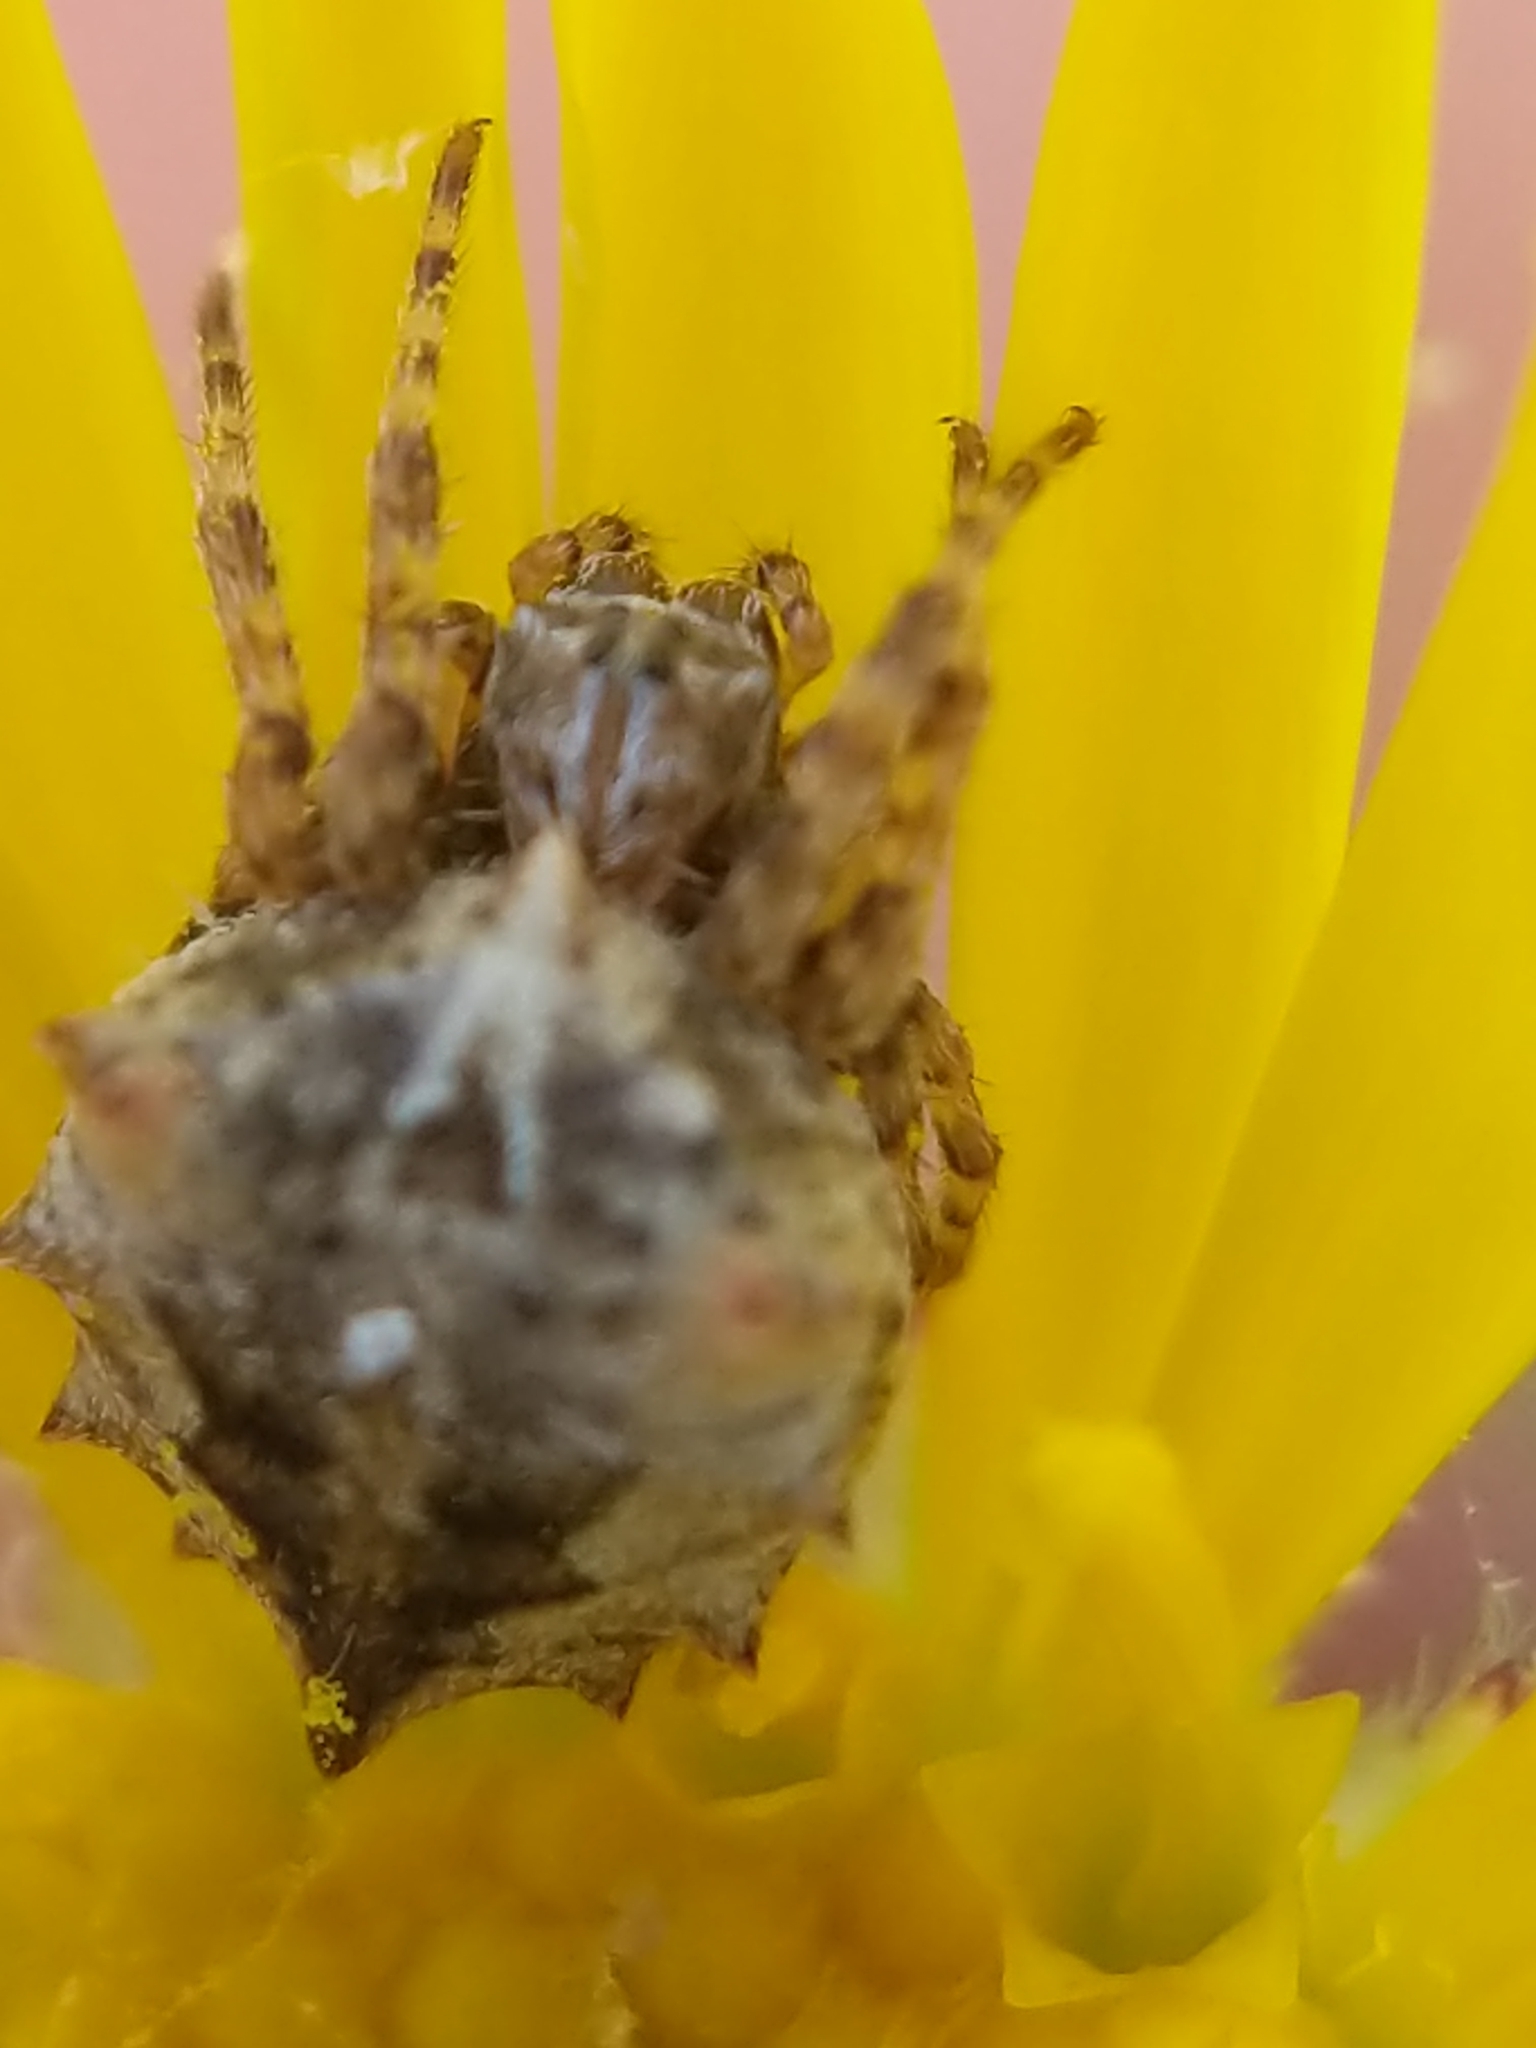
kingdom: Animalia
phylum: Arthropoda
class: Arachnida
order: Araneae
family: Araneidae
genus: Acanthepeira
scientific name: Acanthepeira stellata
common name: Starbellied orbweaver
